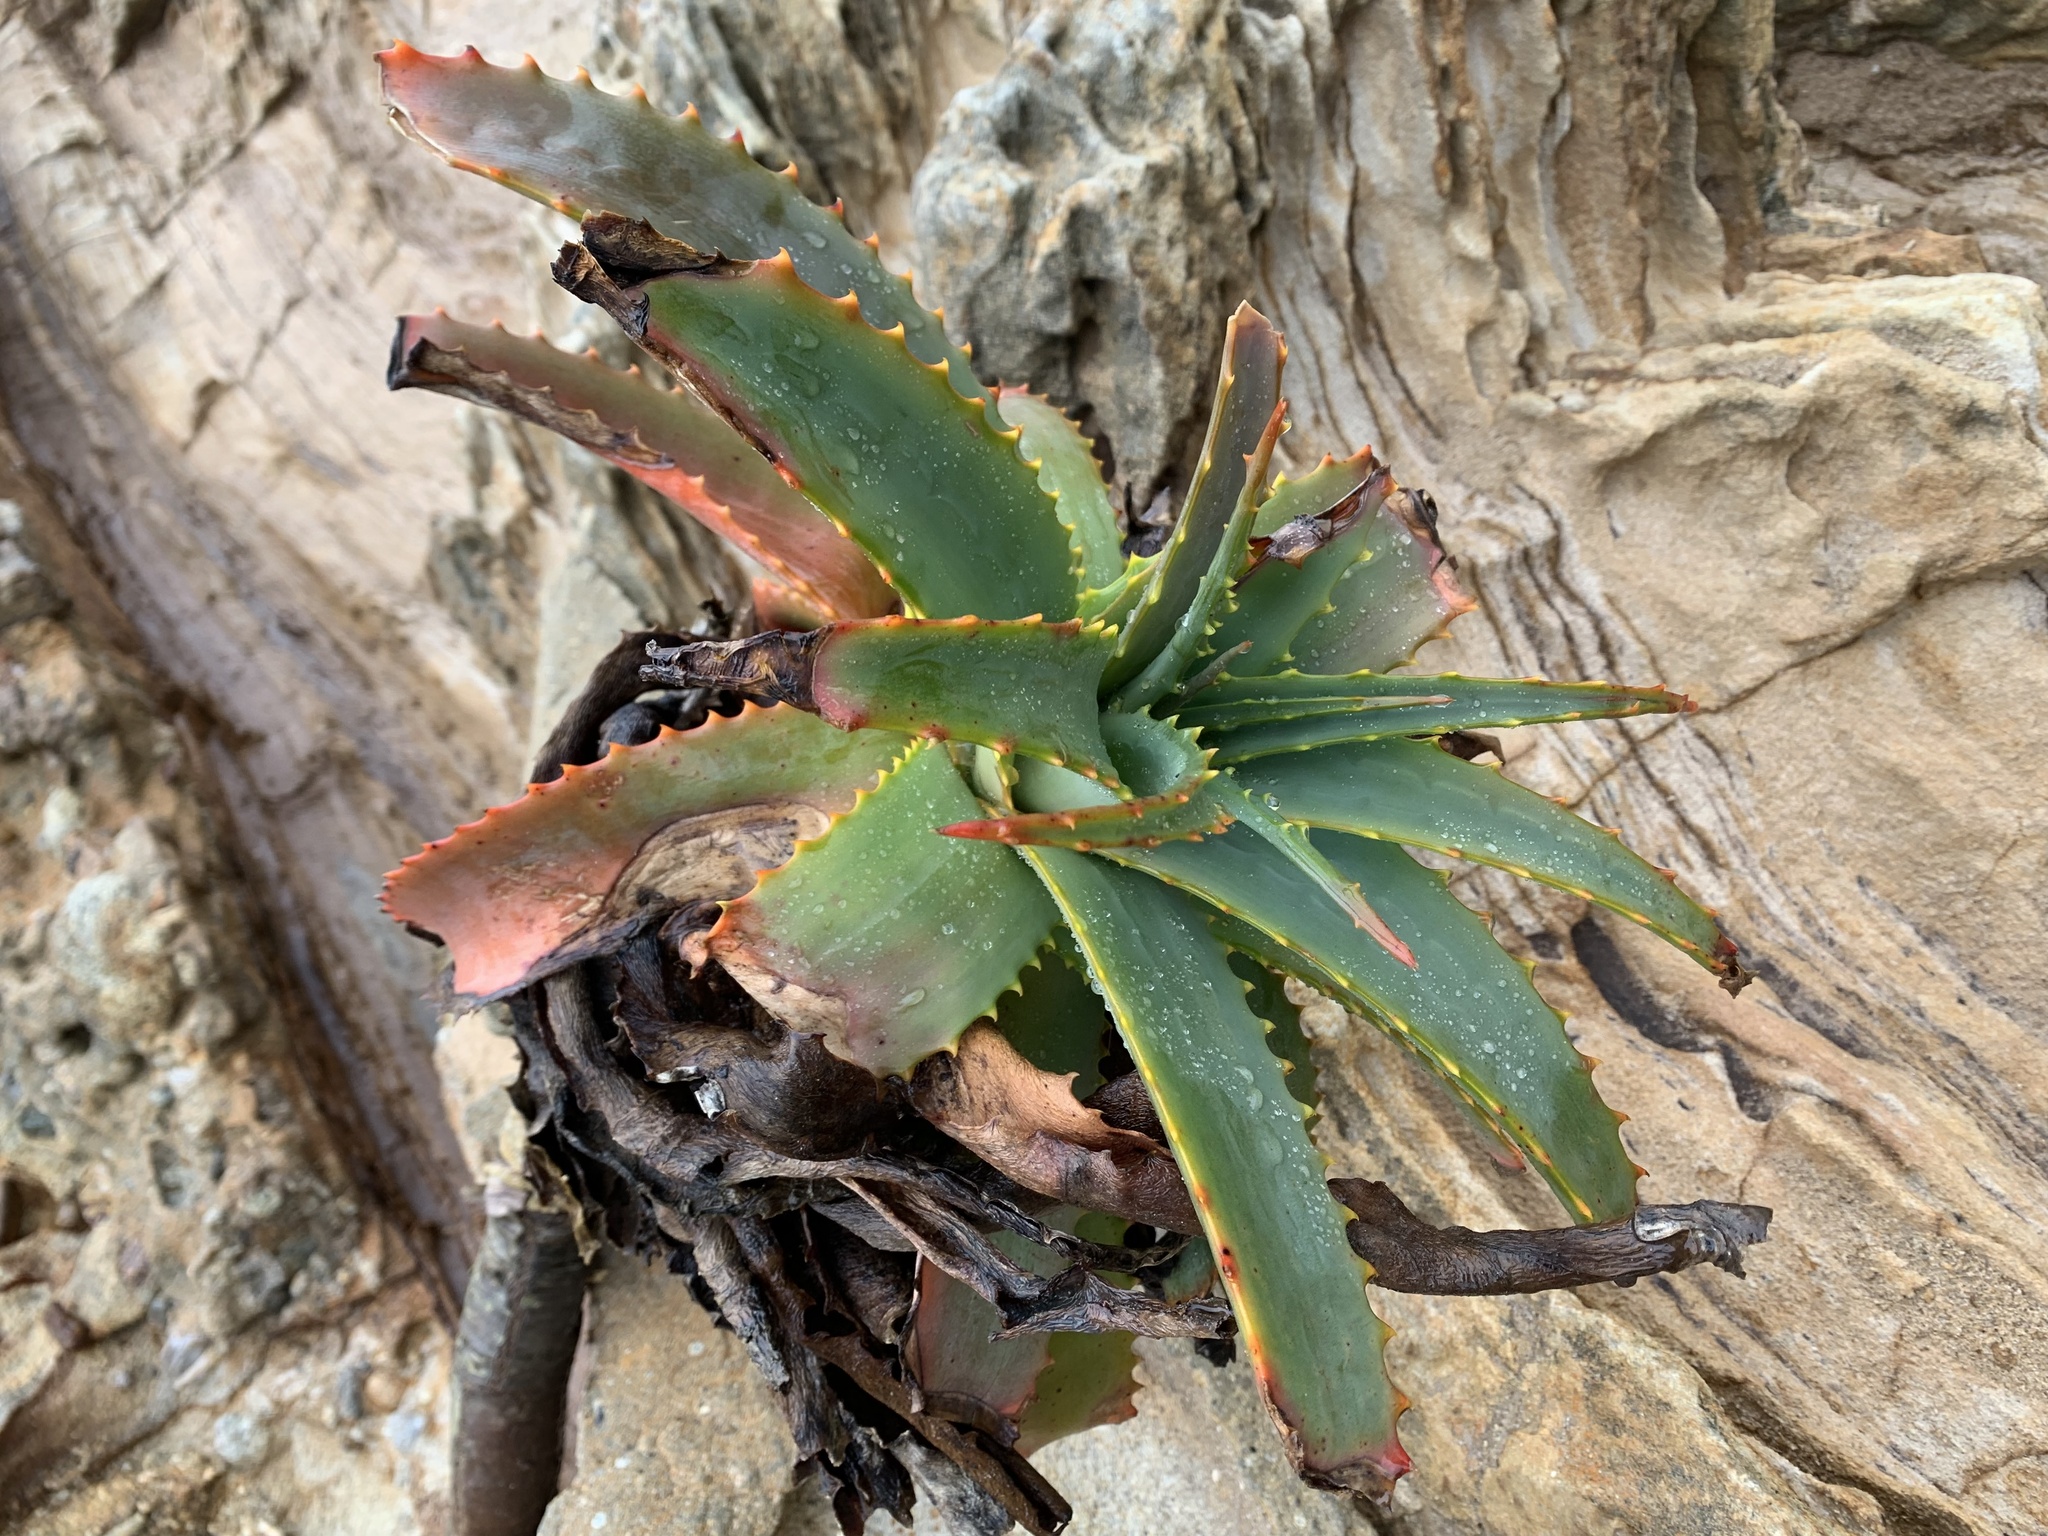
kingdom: Plantae
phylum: Tracheophyta
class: Liliopsida
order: Asparagales
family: Asphodelaceae
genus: Aloe
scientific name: Aloe arborescens
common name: Candelabra aloe
